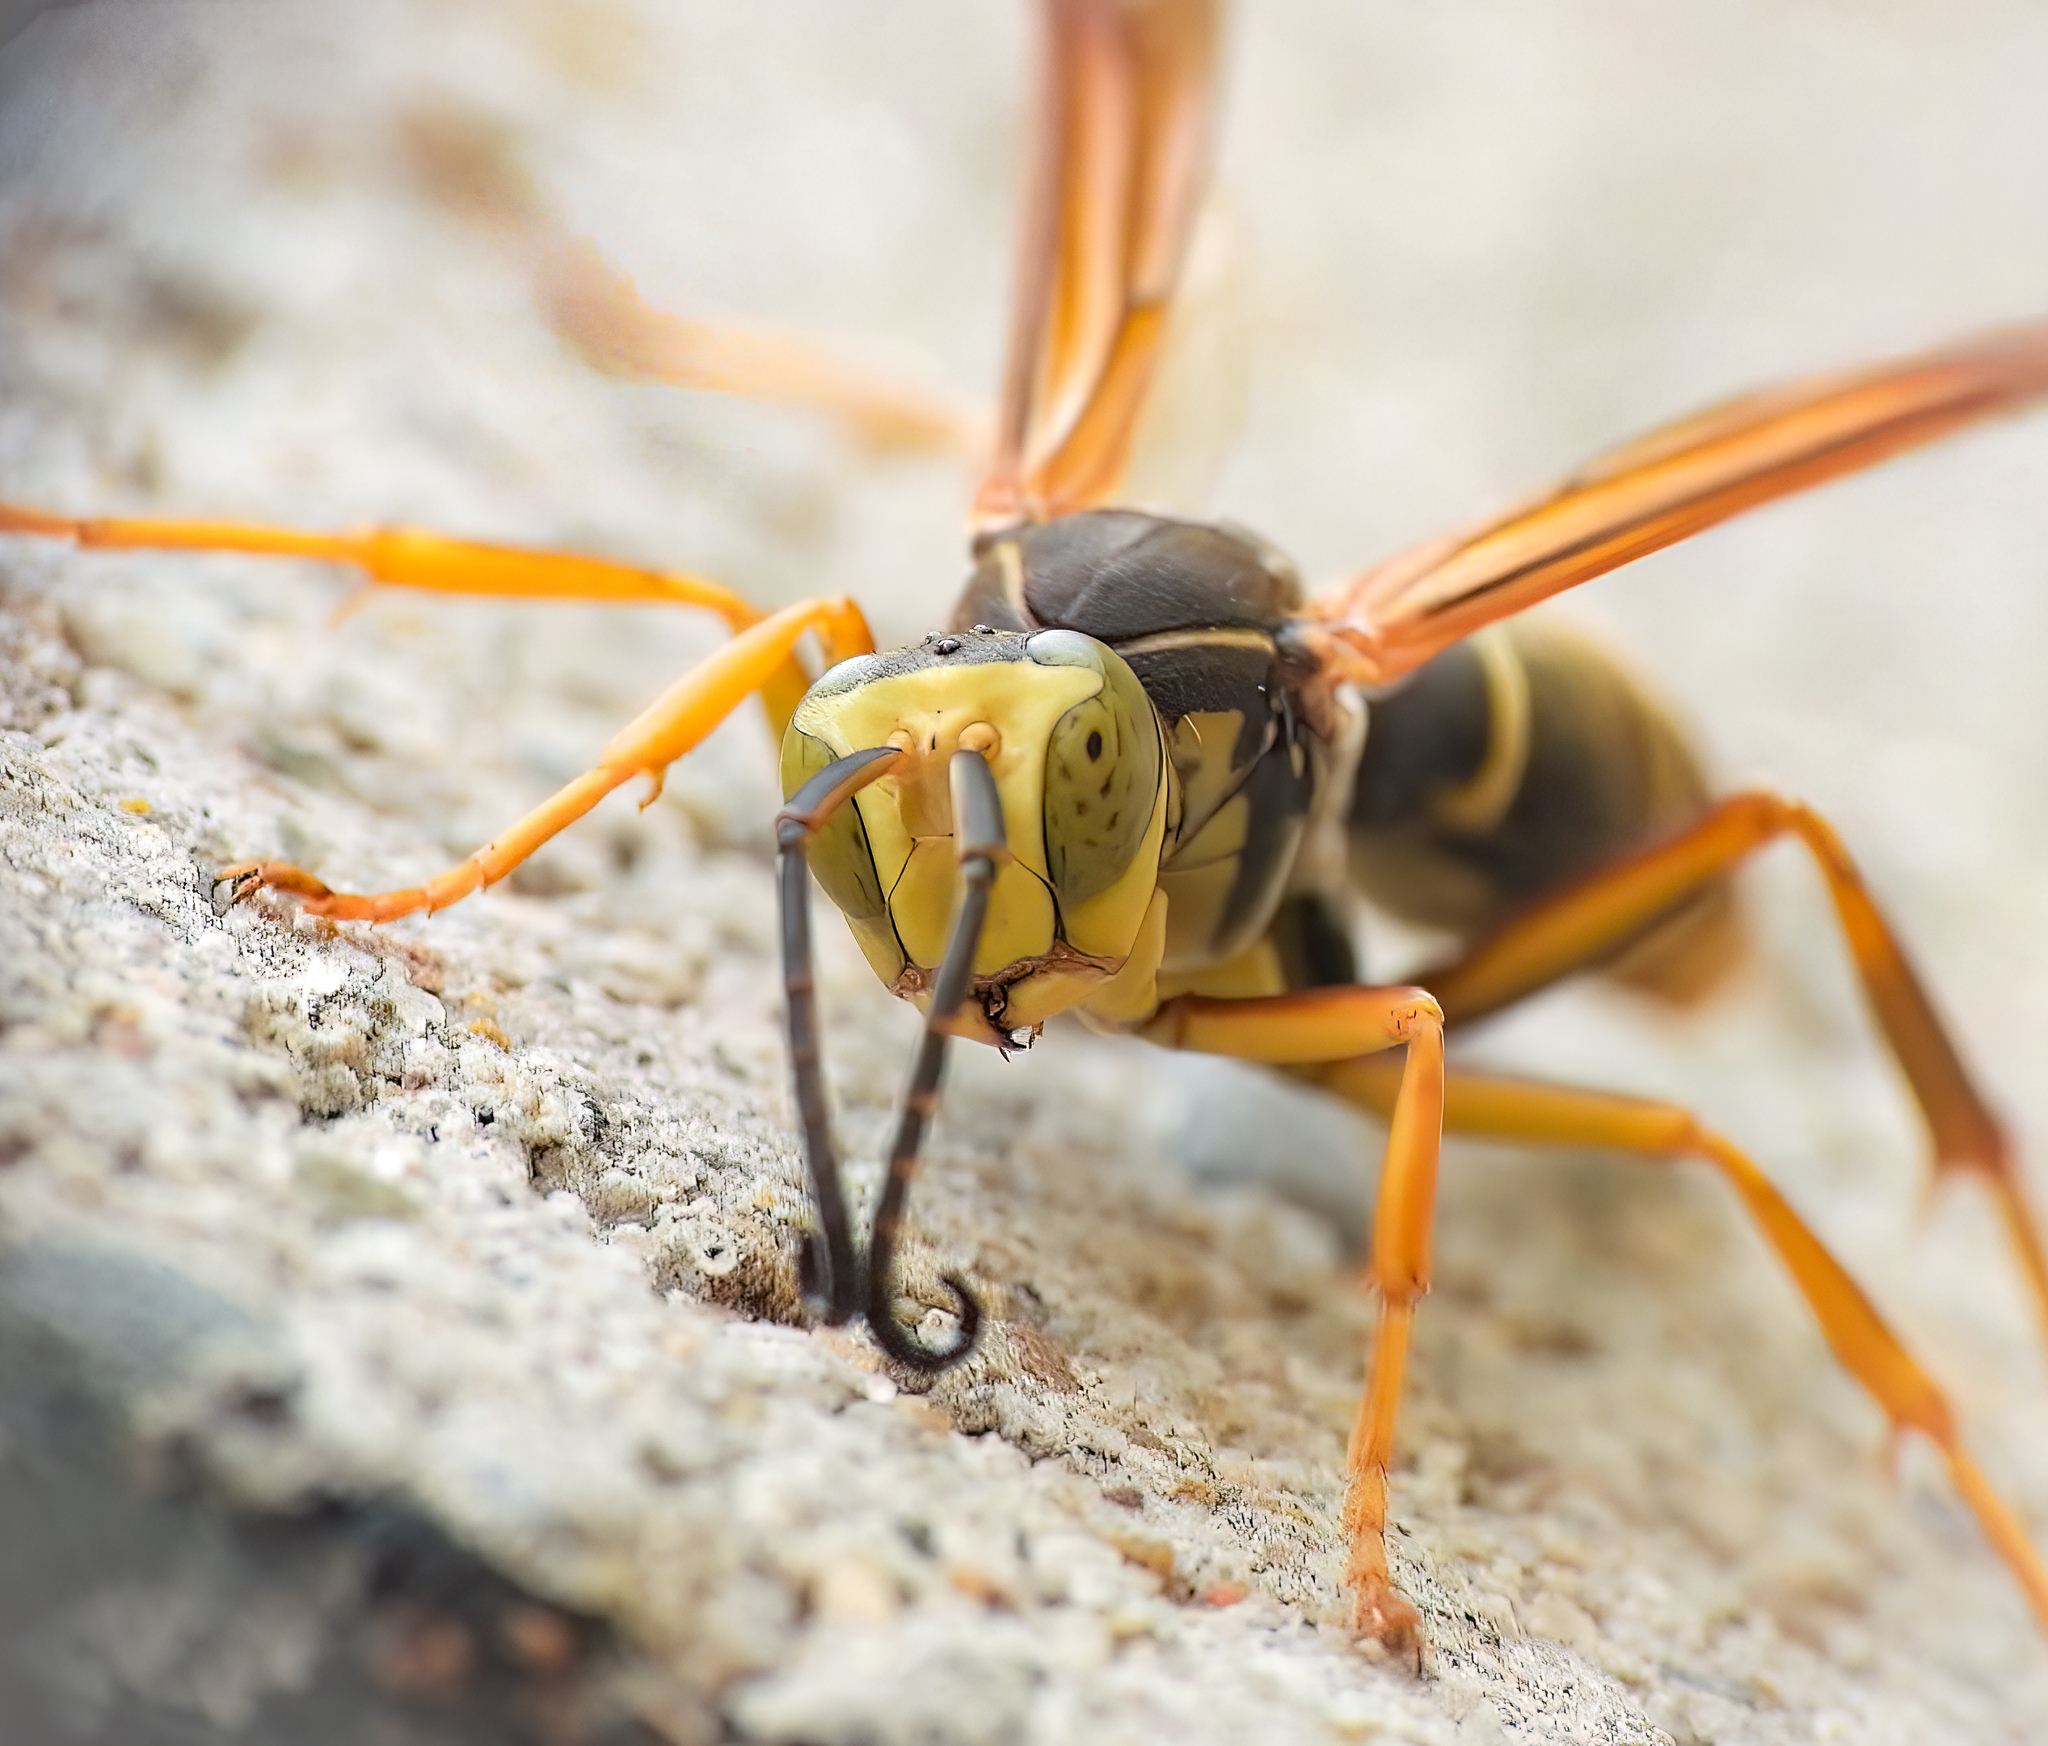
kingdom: Animalia
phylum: Arthropoda
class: Insecta
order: Hymenoptera
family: Eumenidae
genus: Polistes
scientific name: Polistes fuscatus
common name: Dark paper wasp
